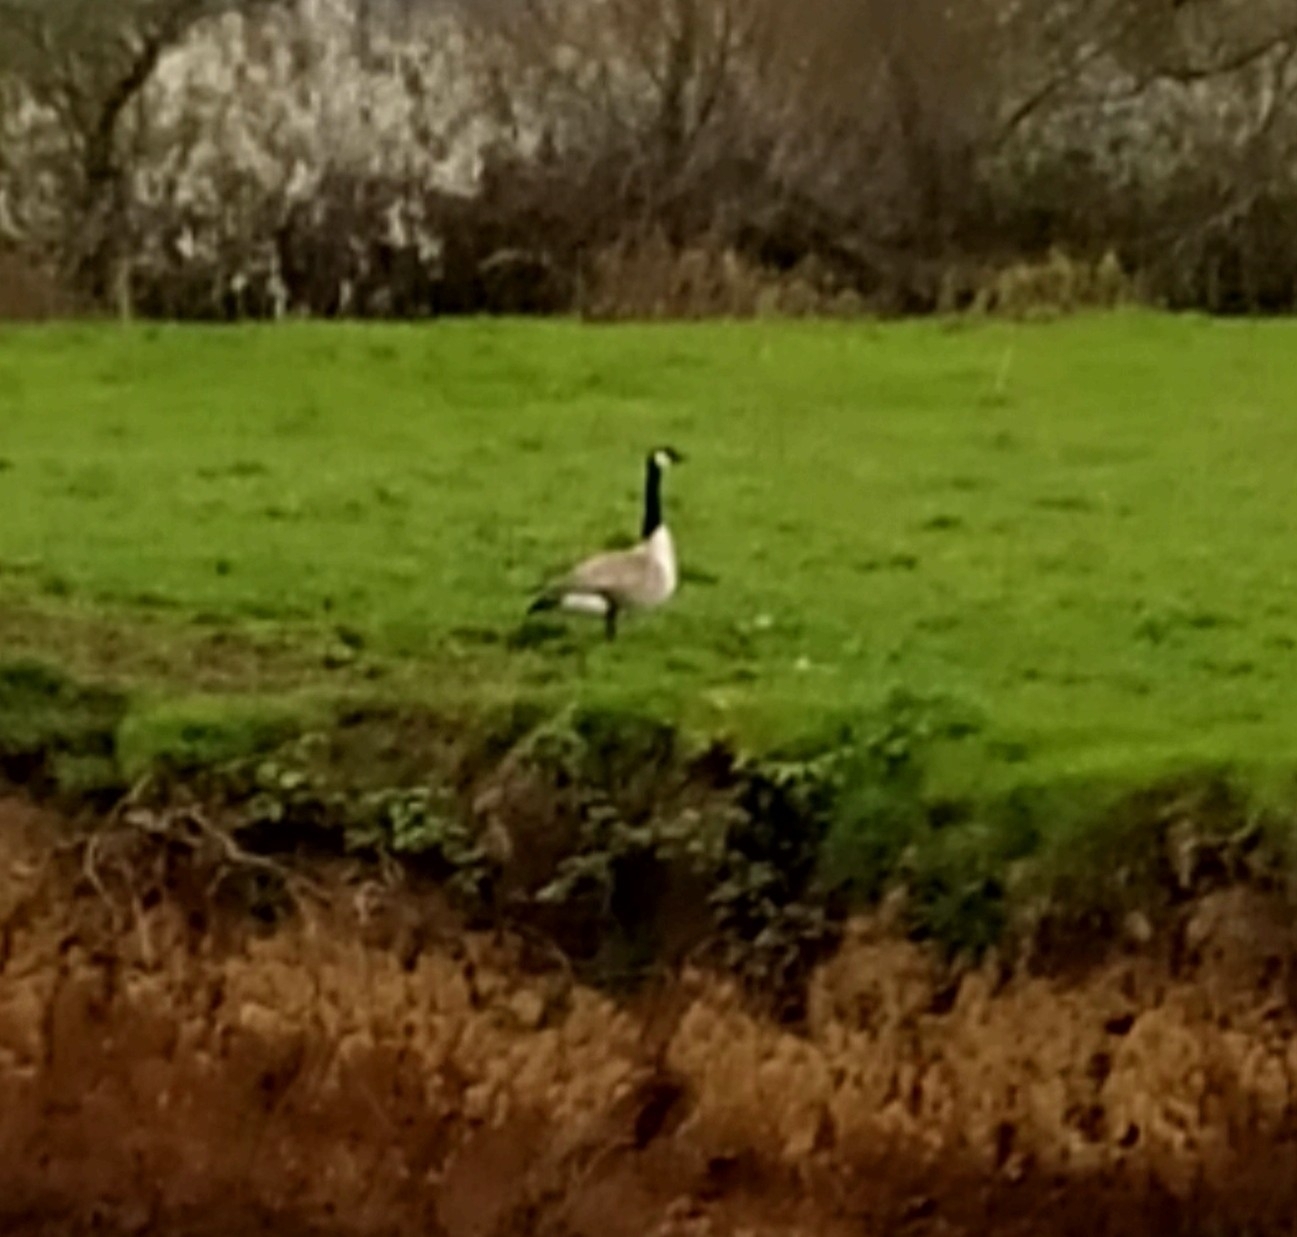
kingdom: Animalia
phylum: Chordata
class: Aves
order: Anseriformes
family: Anatidae
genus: Branta
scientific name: Branta canadensis
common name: Canada goose
